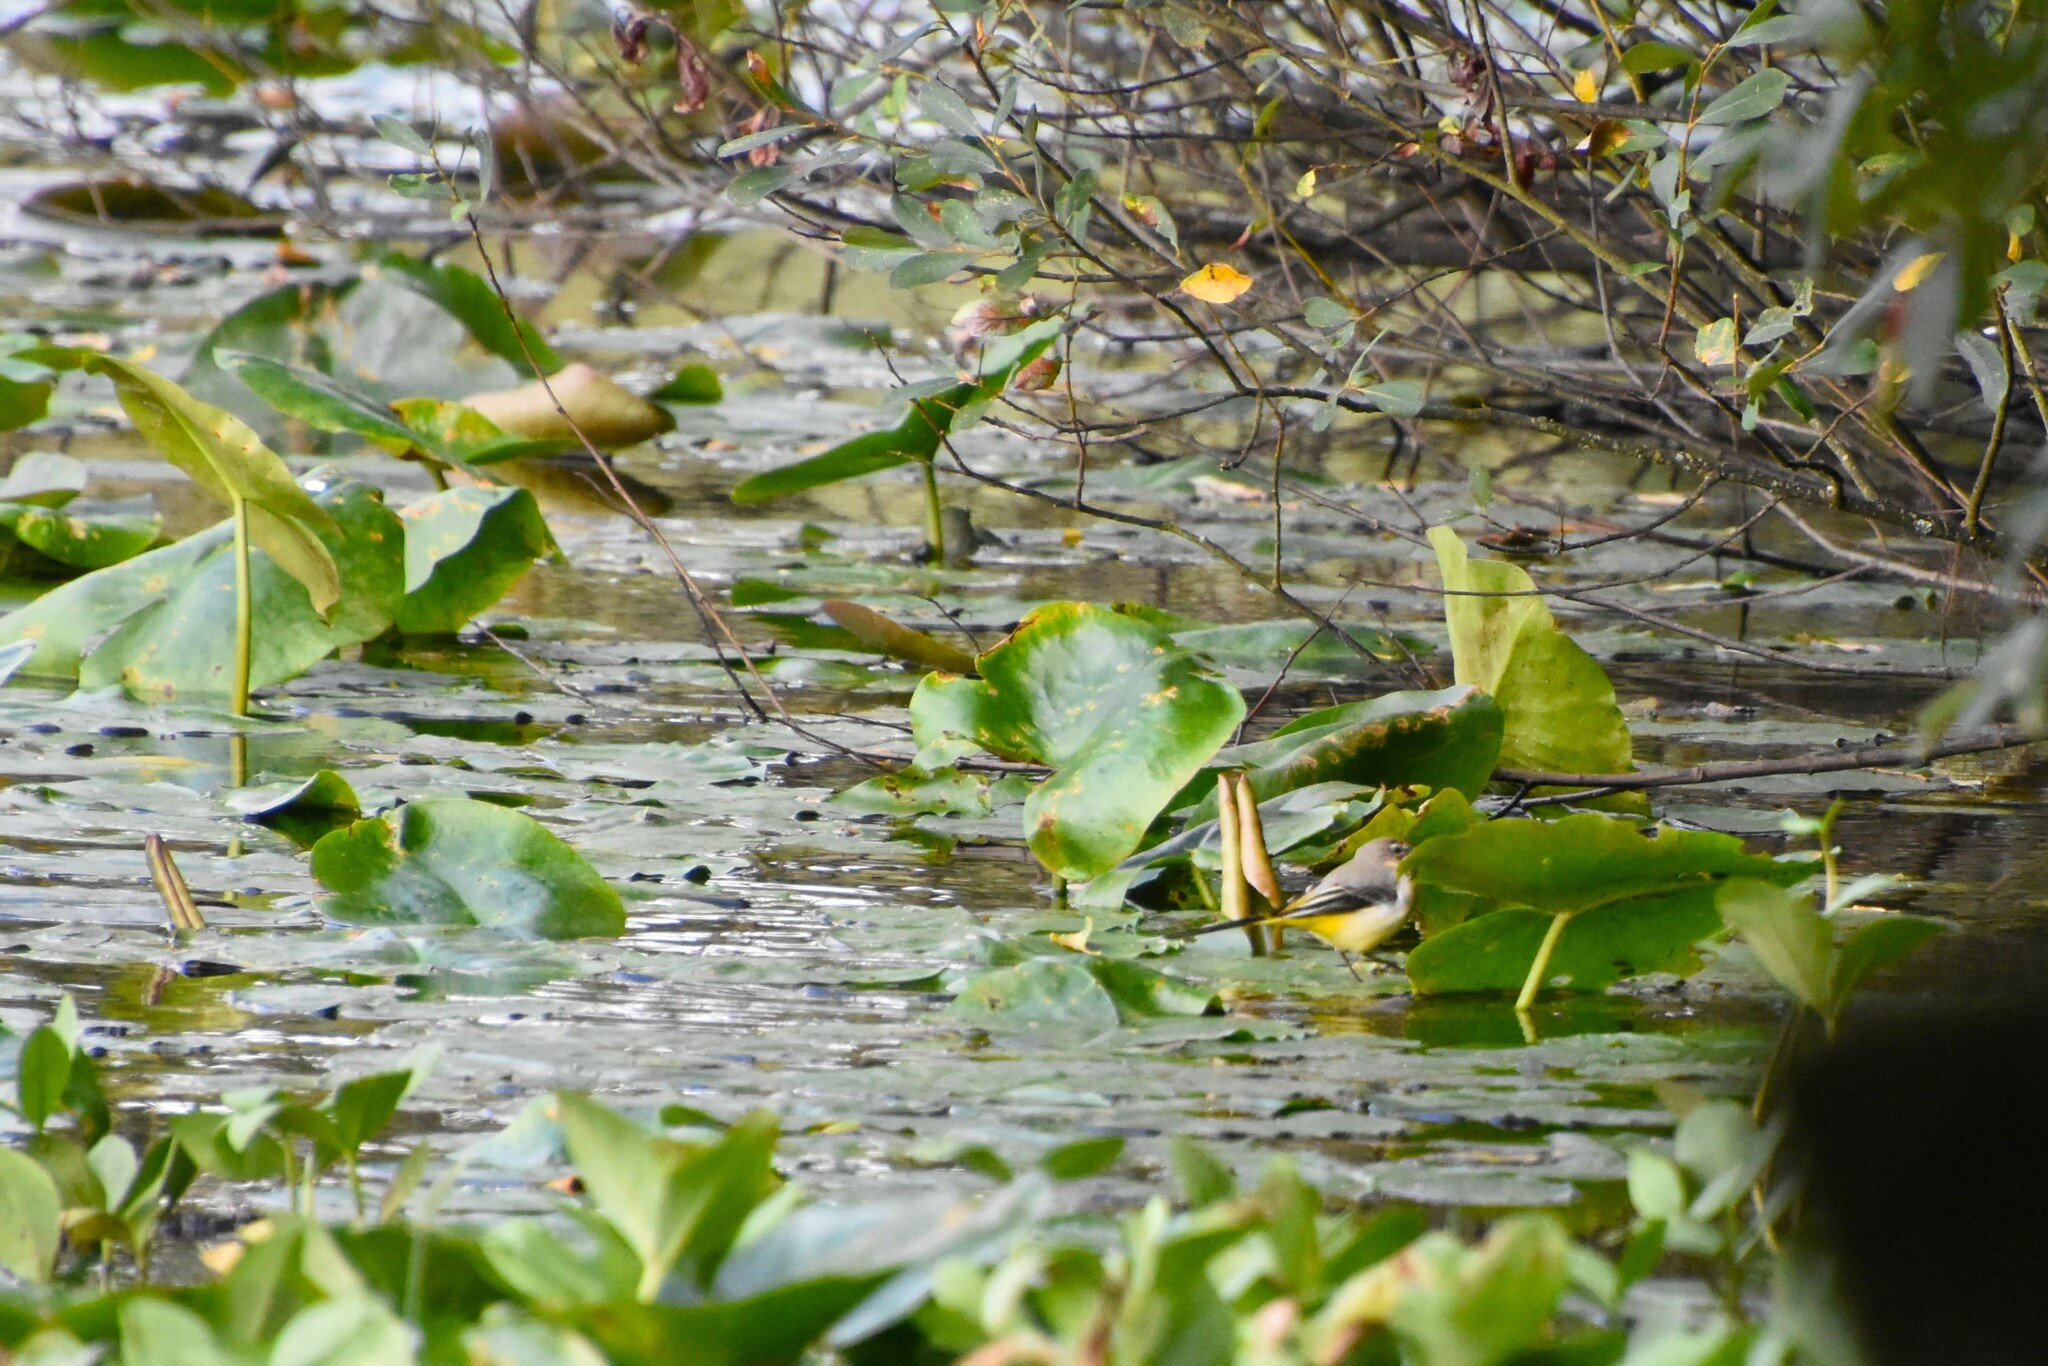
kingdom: Animalia
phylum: Chordata
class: Aves
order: Passeriformes
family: Motacillidae
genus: Motacilla
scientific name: Motacilla cinerea
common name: Grey wagtail
